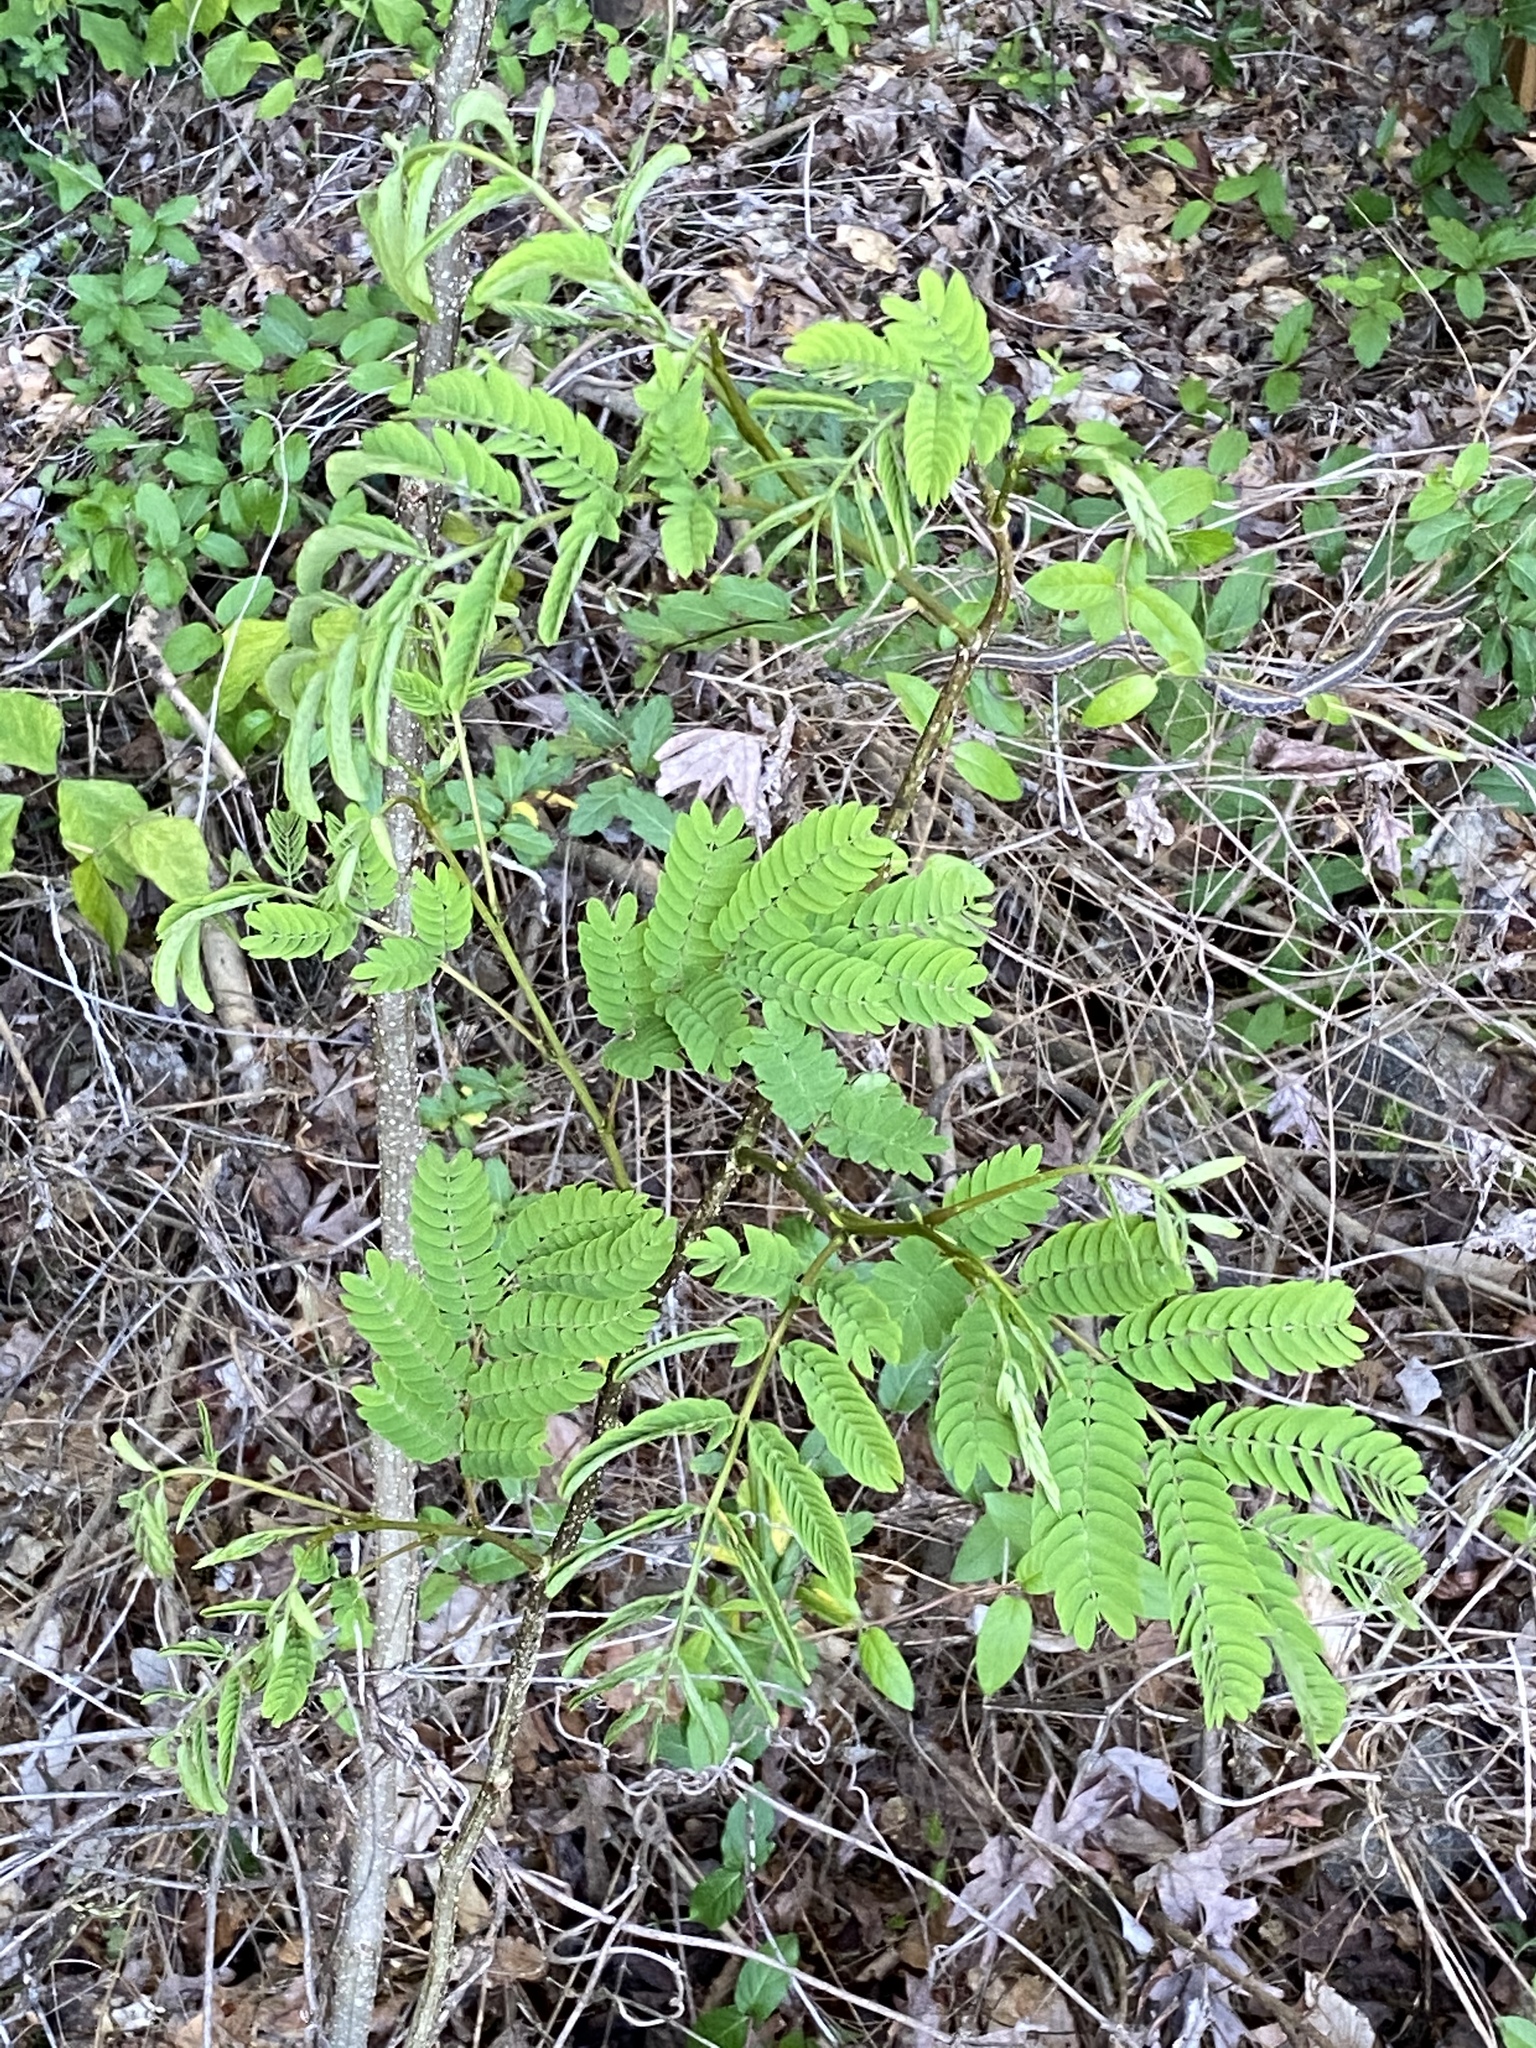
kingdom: Plantae
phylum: Tracheophyta
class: Magnoliopsida
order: Fabales
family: Fabaceae
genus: Albizia
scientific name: Albizia julibrissin
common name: Silktree
